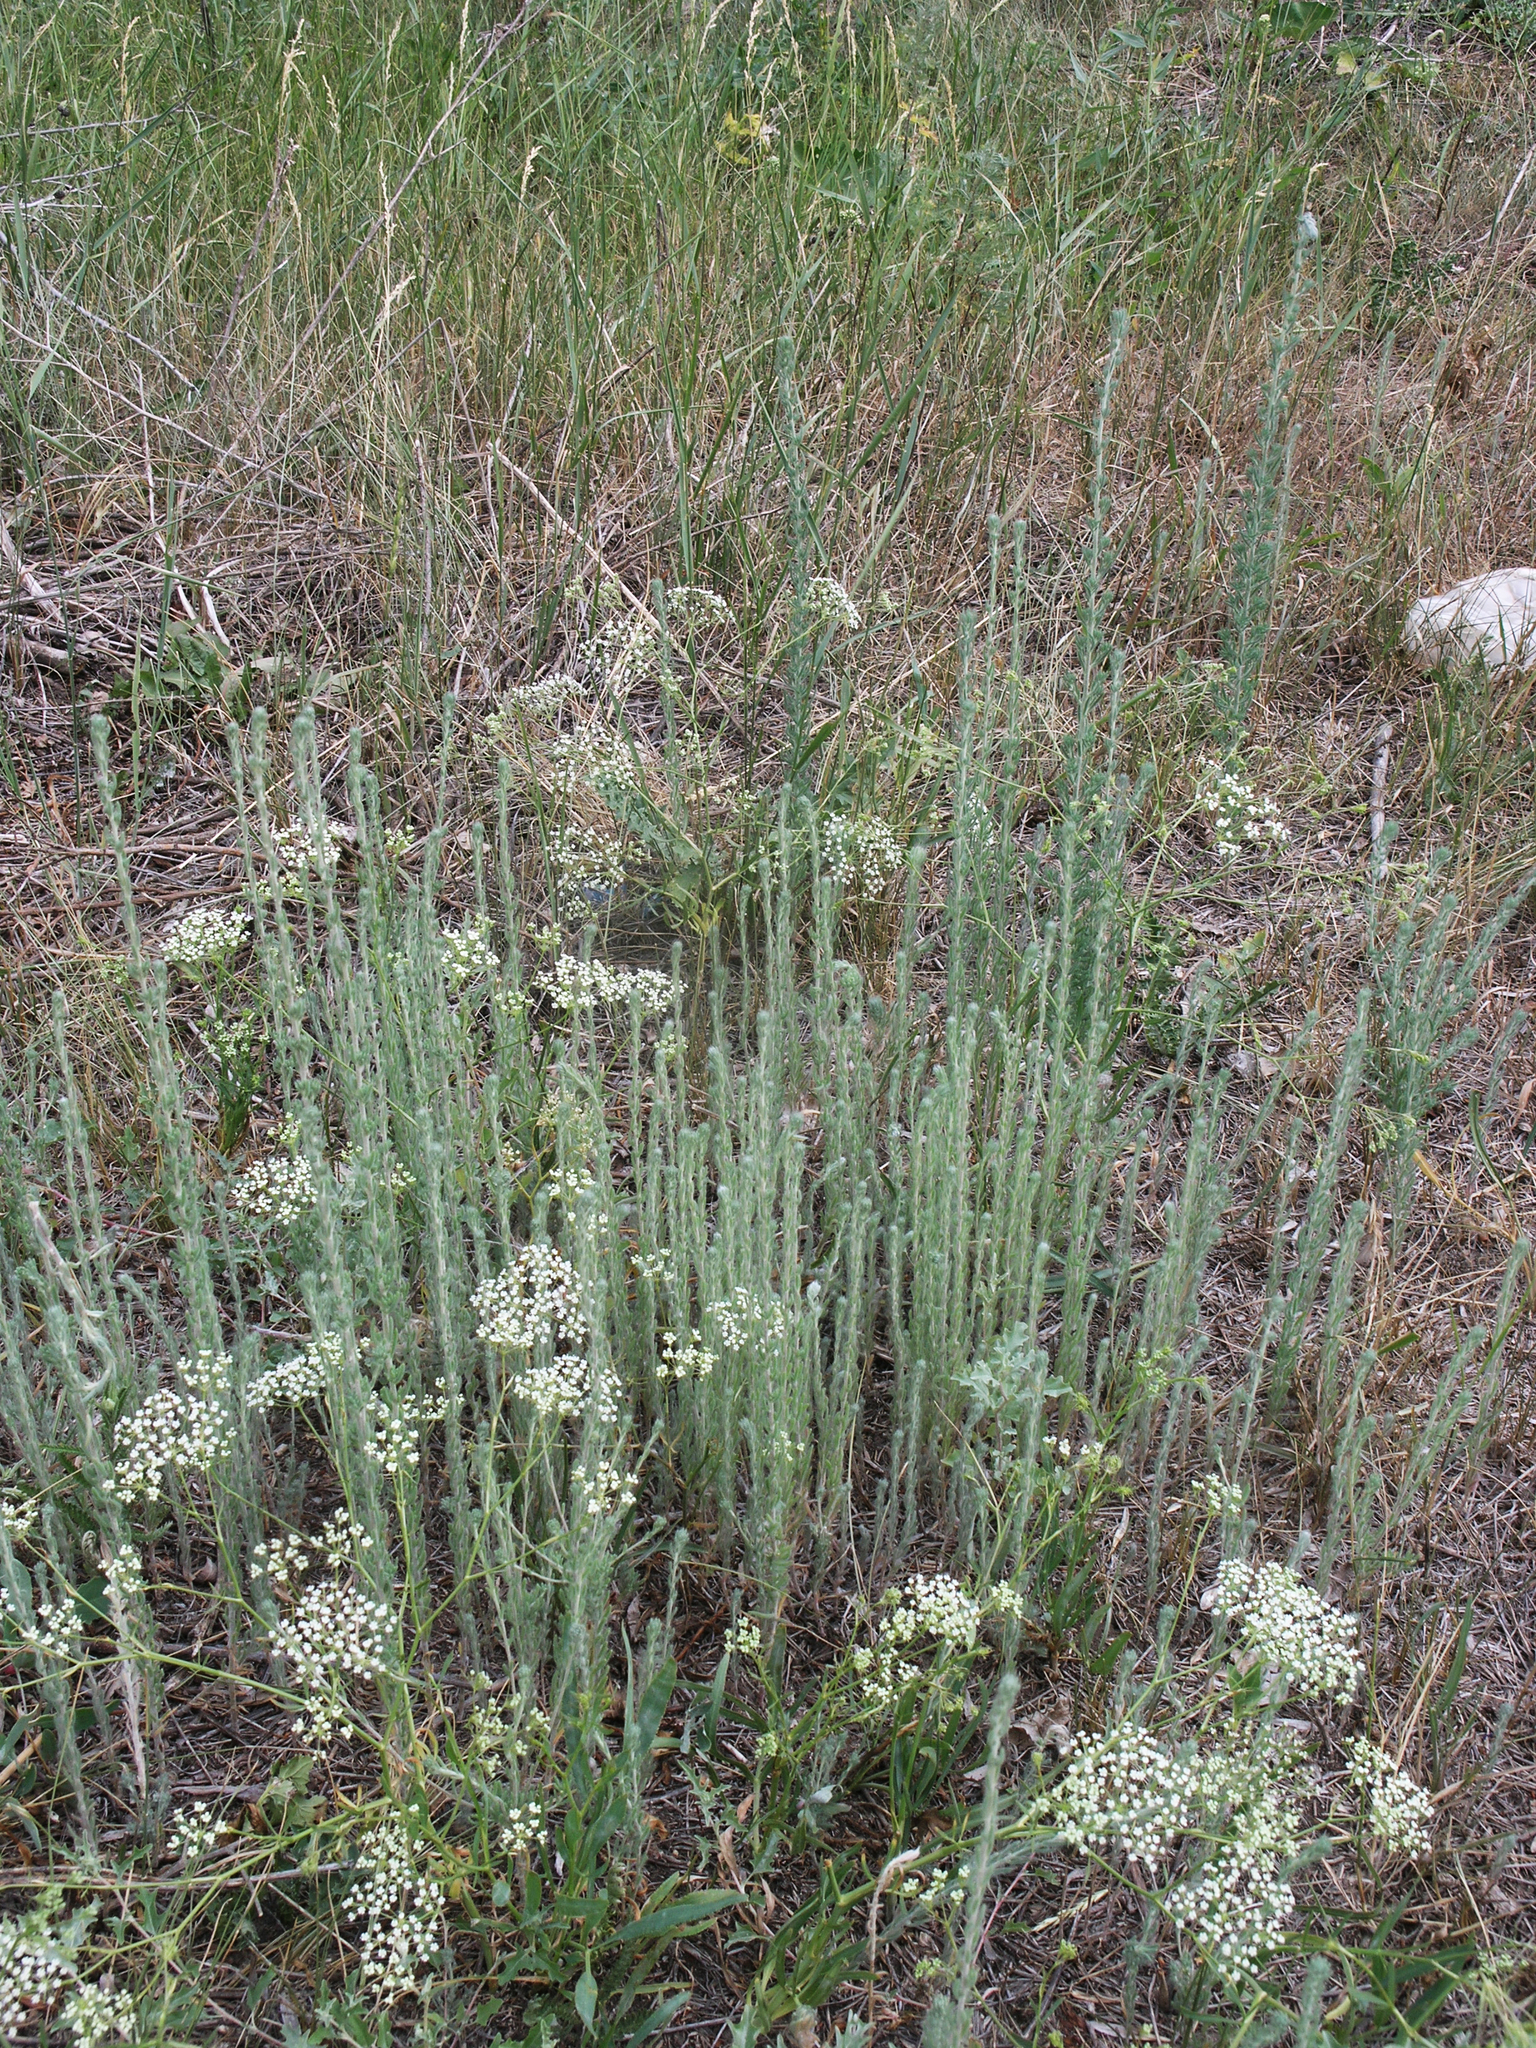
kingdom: Plantae
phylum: Tracheophyta
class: Magnoliopsida
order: Apiales
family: Apiaceae
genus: Falcaria
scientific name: Falcaria vulgaris
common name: Longleaf
